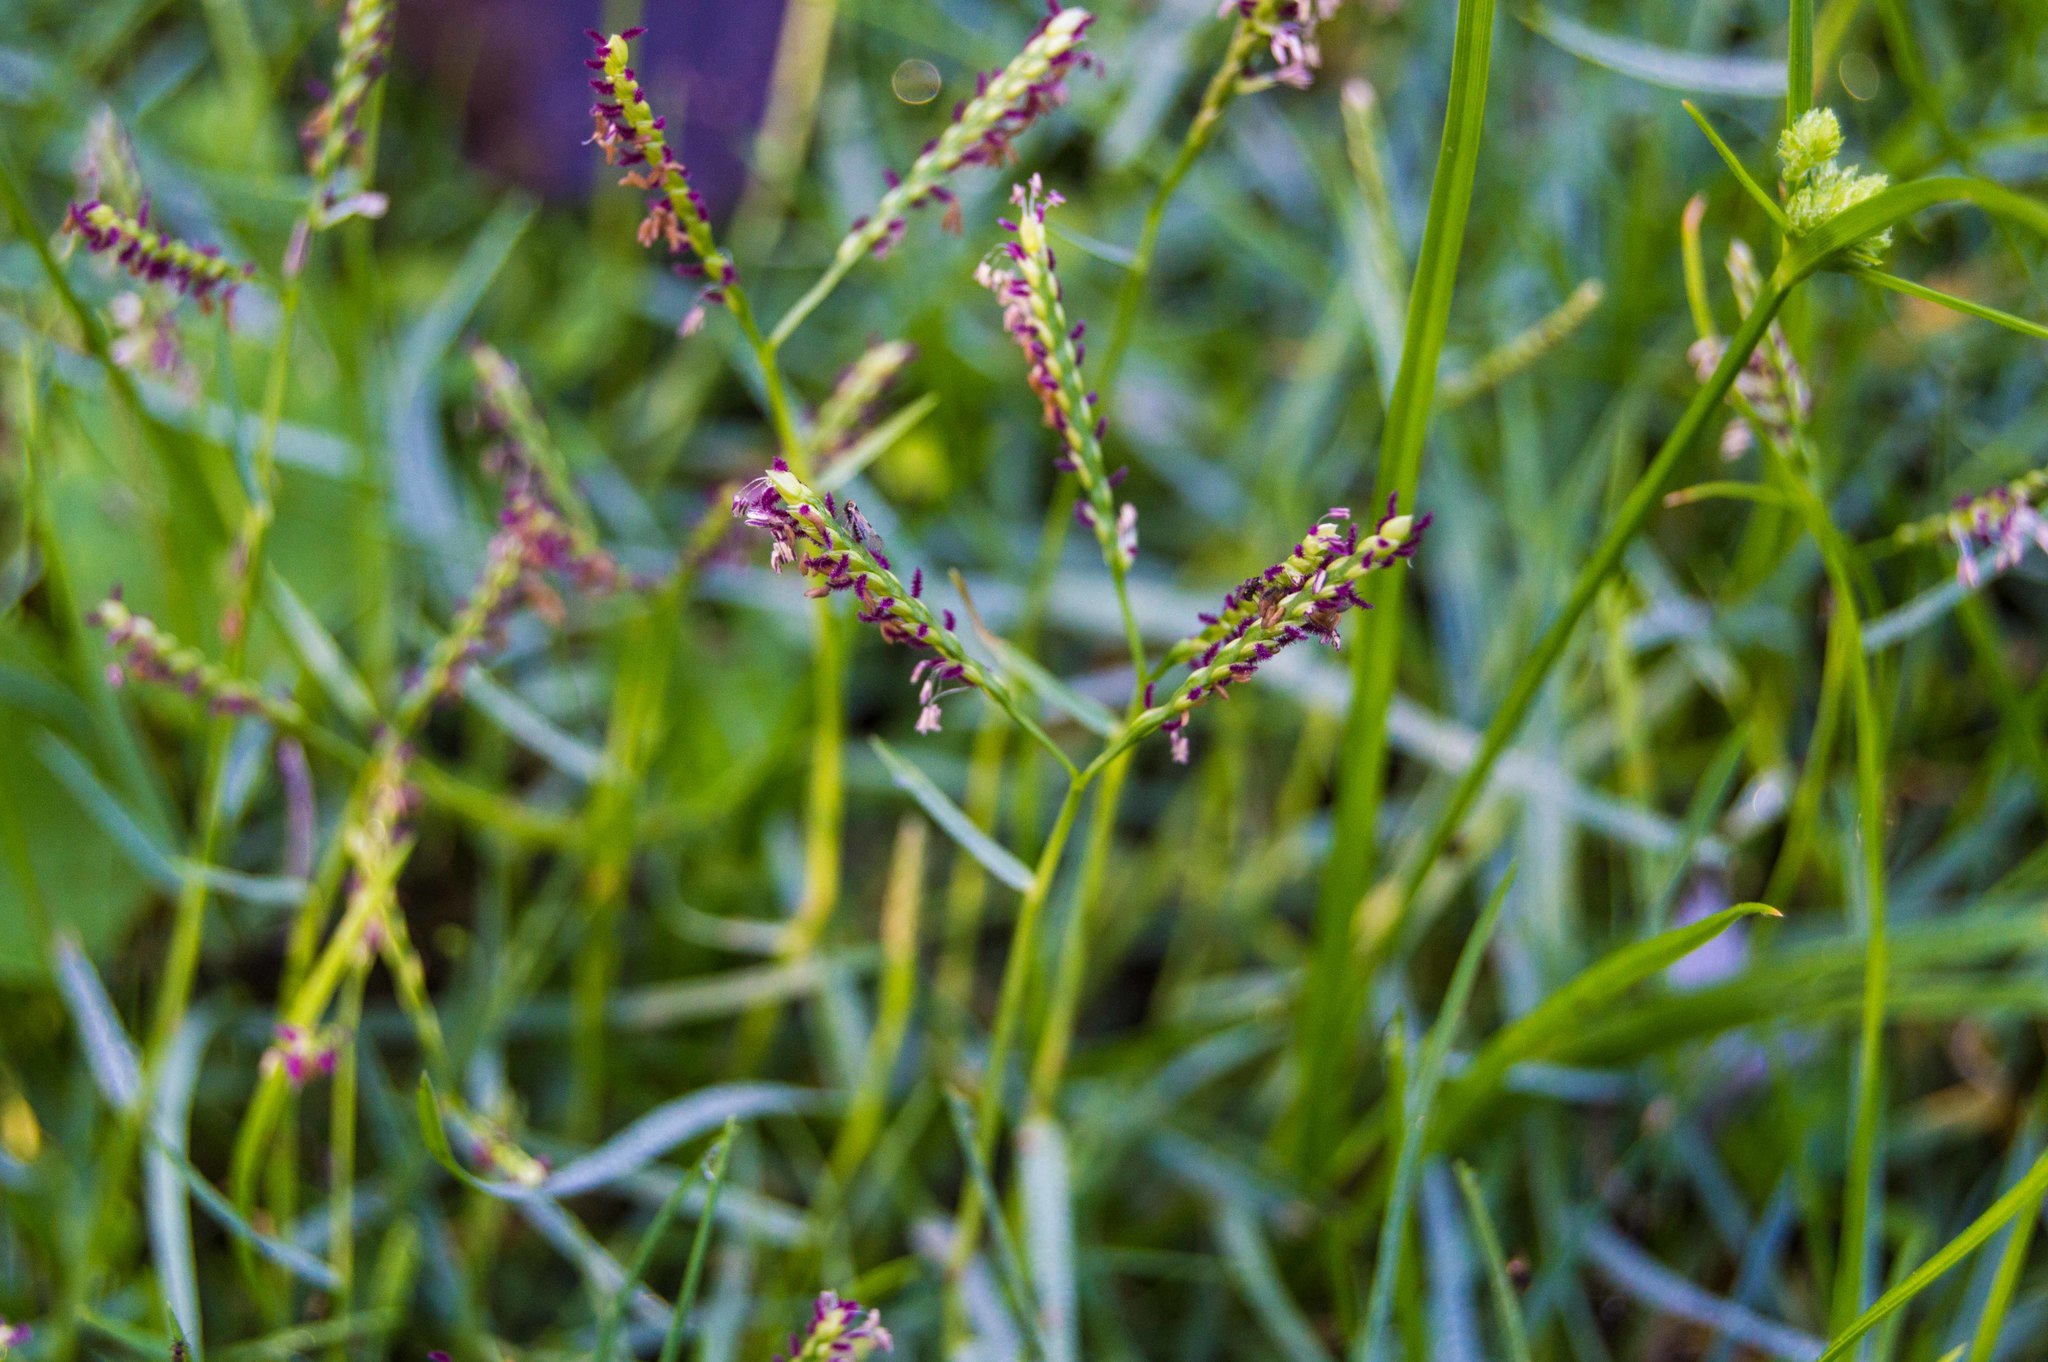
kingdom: Plantae
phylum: Tracheophyta
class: Liliopsida
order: Poales
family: Poaceae
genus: Paspalum
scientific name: Paspalum vaginatum
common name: Seashore paspalum
